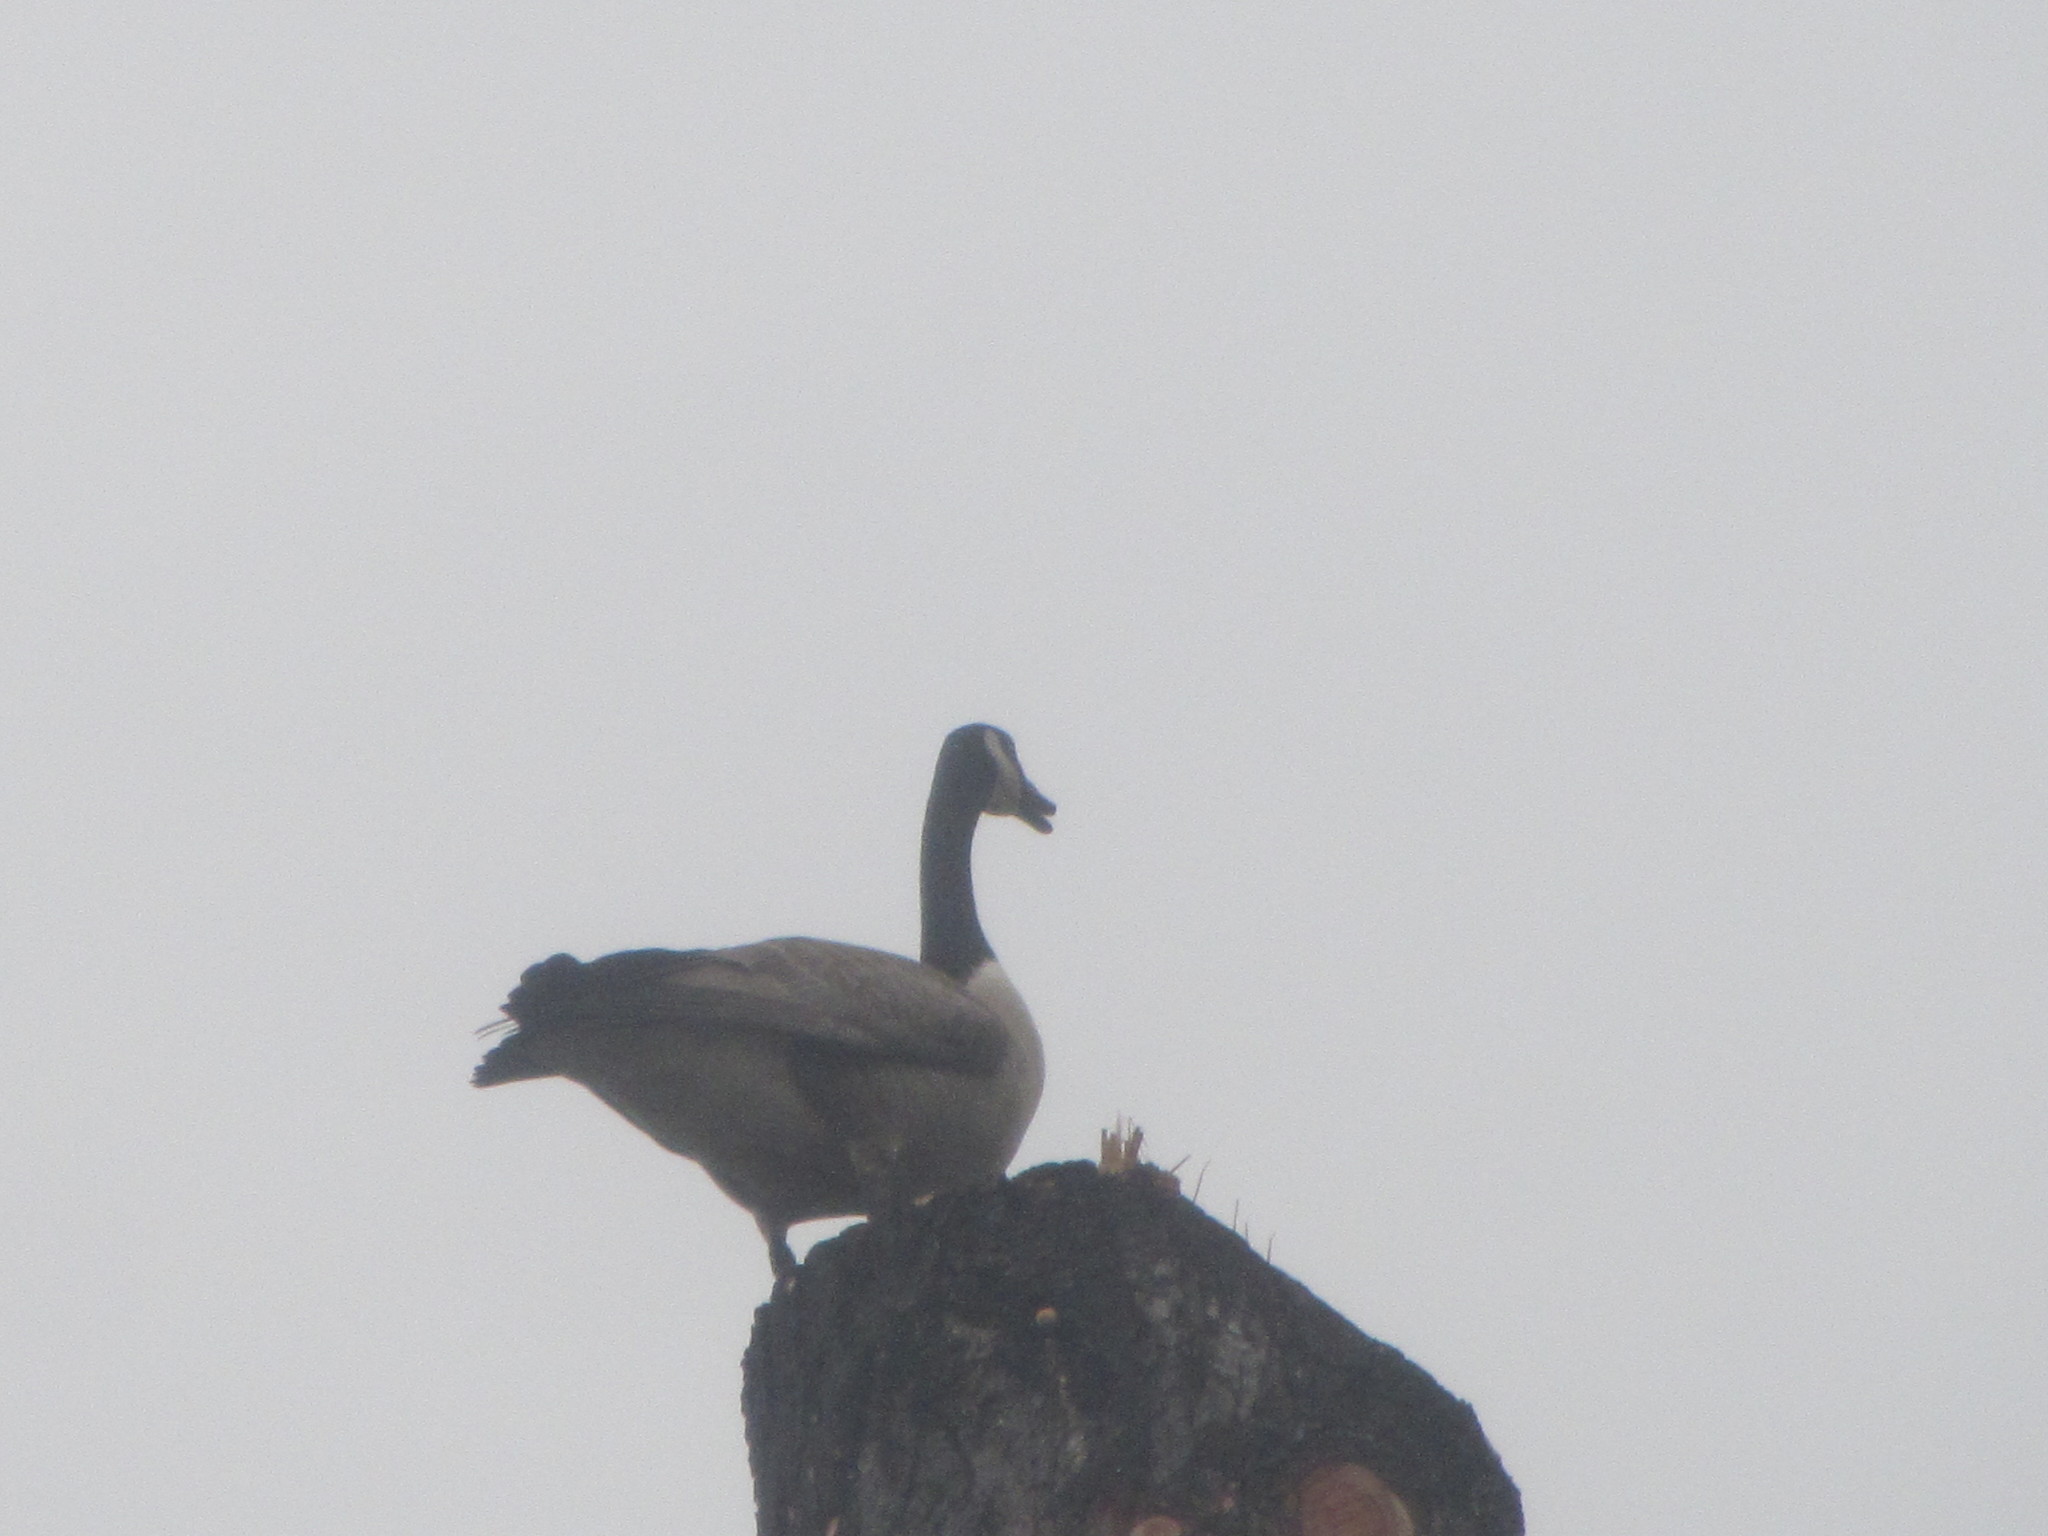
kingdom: Animalia
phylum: Chordata
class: Aves
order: Anseriformes
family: Anatidae
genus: Branta
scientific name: Branta canadensis
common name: Canada goose
